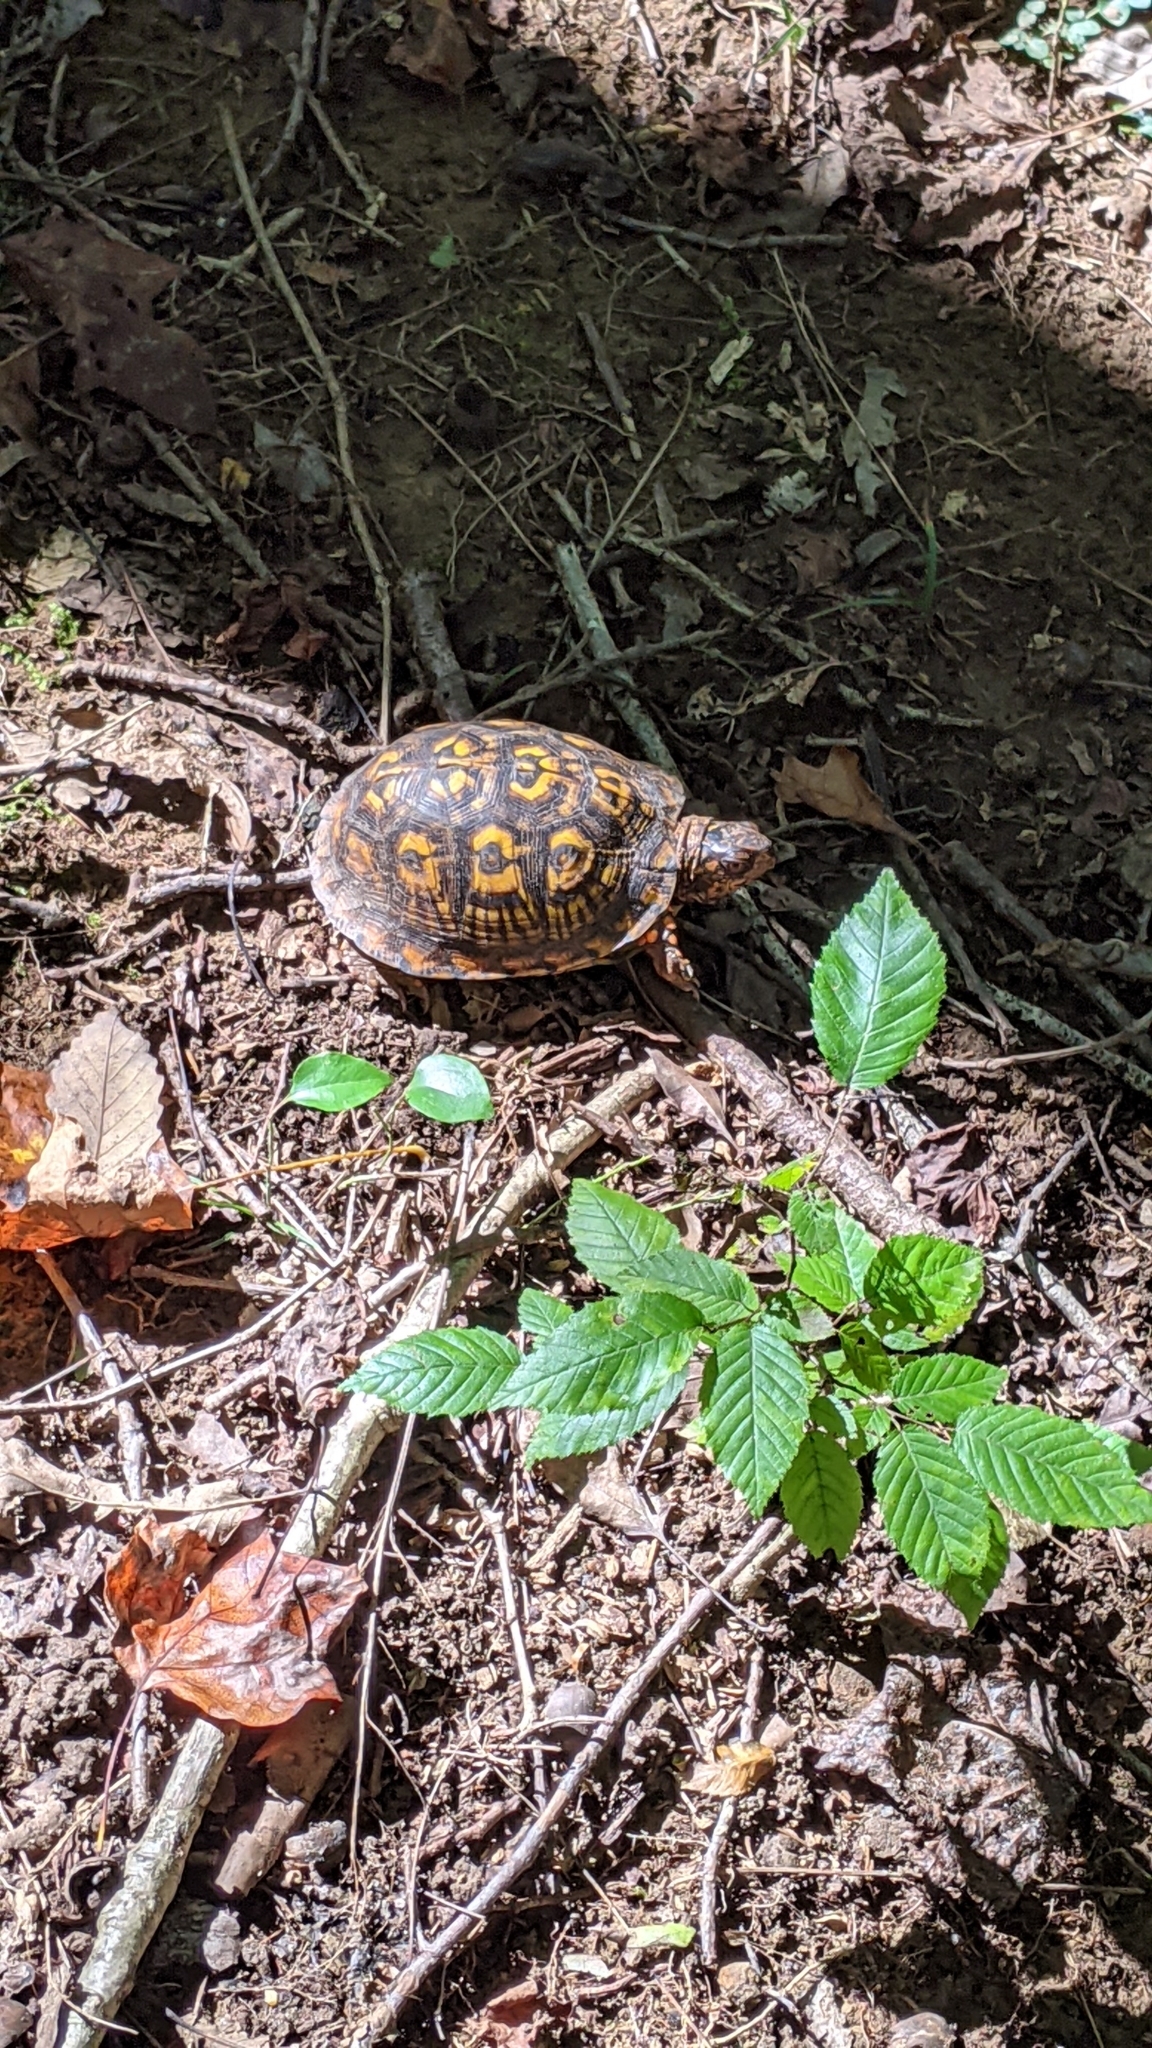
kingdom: Animalia
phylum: Chordata
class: Testudines
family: Emydidae
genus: Terrapene
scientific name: Terrapene carolina
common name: Common box turtle
